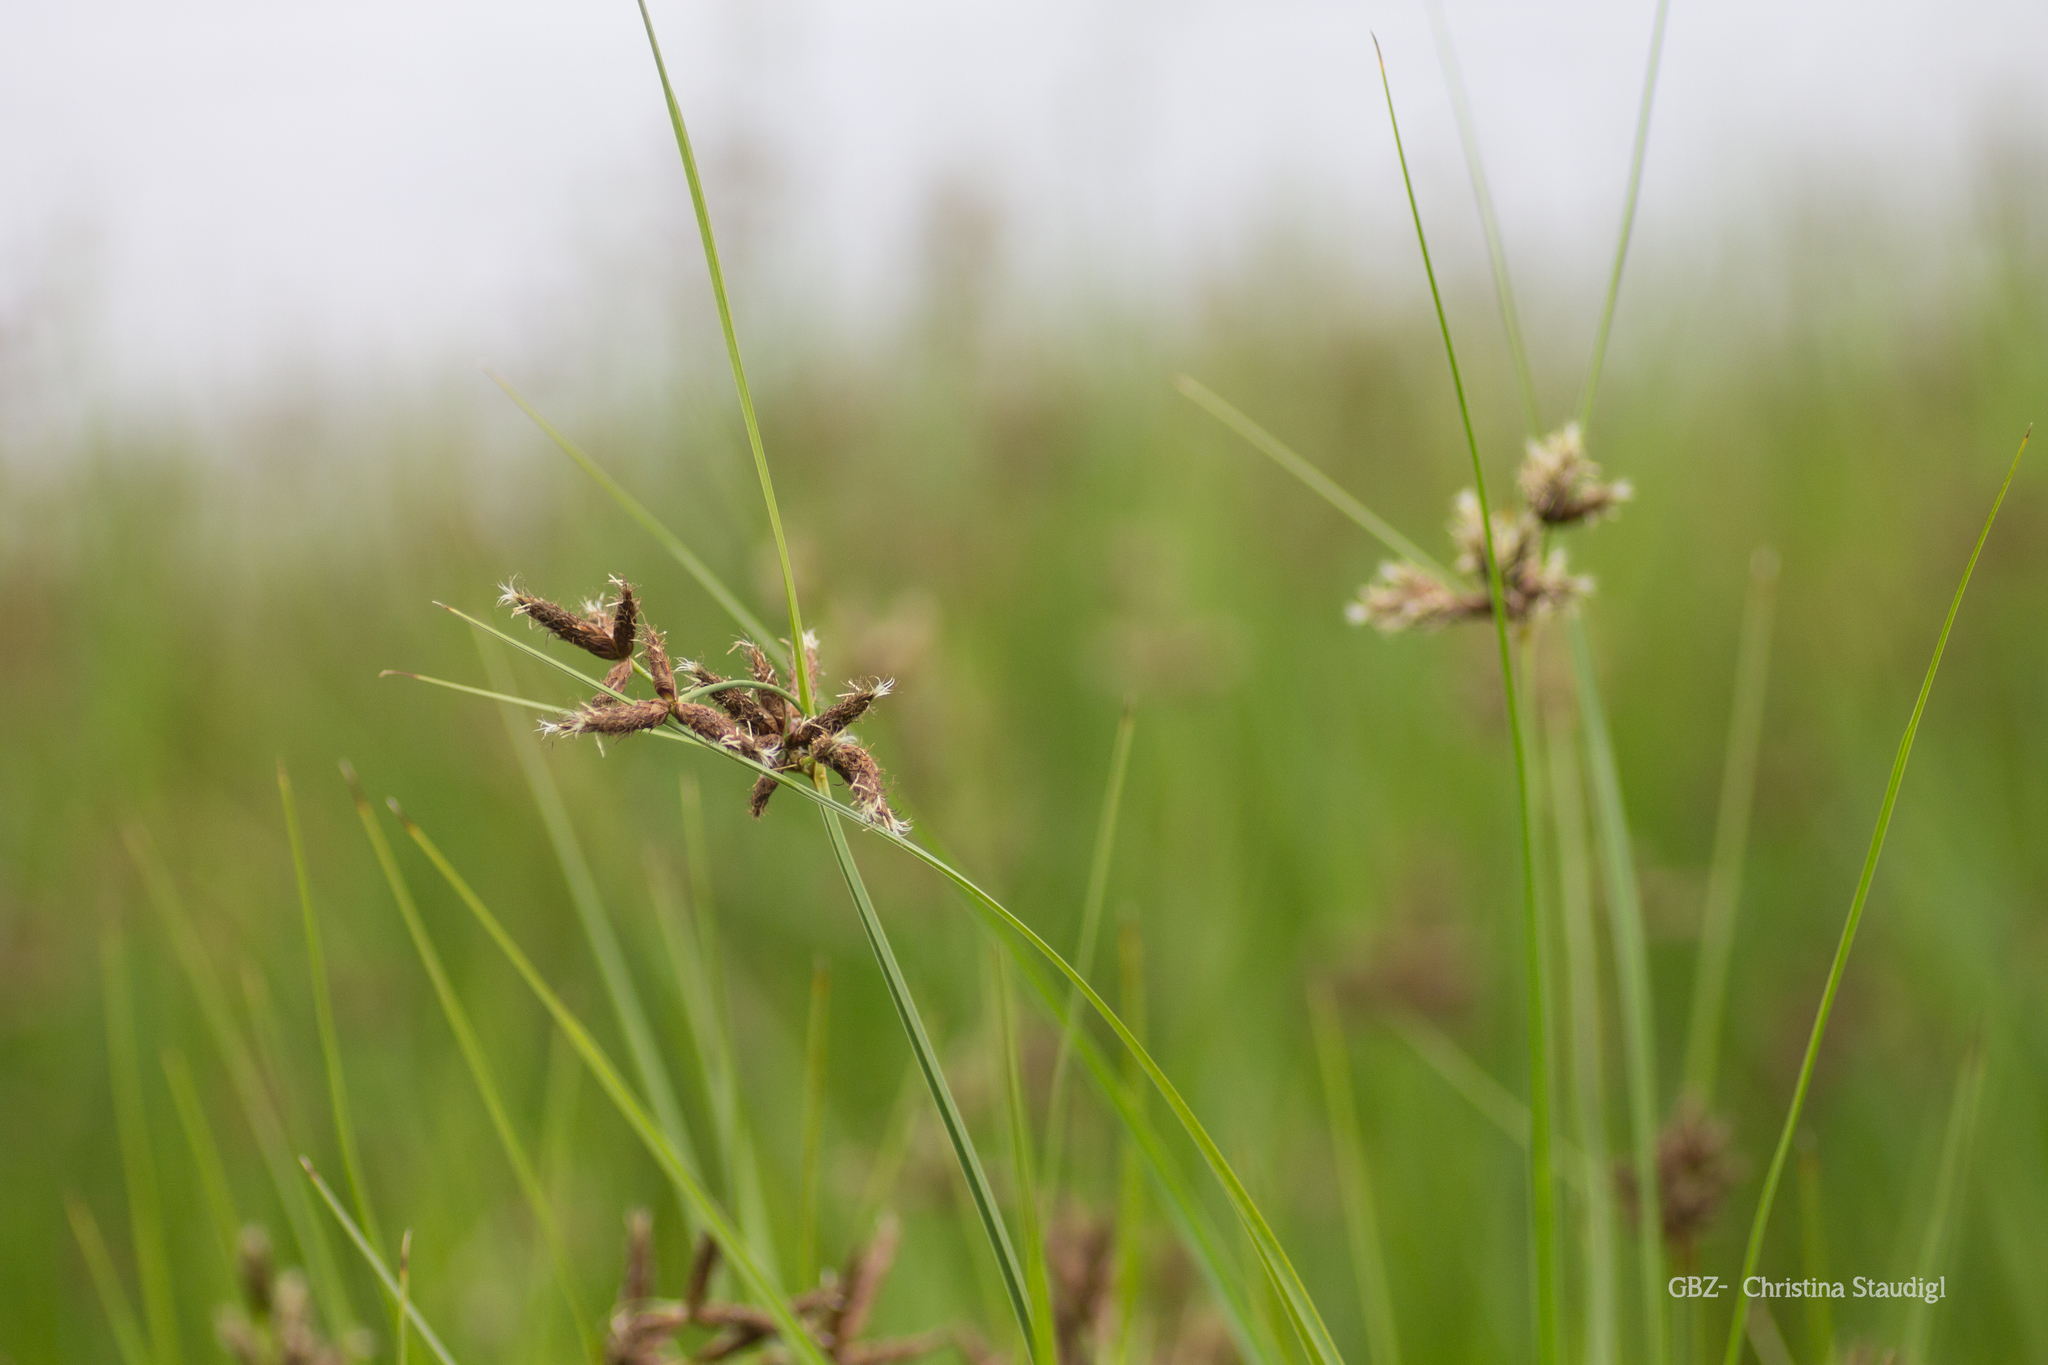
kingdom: Plantae
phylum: Tracheophyta
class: Liliopsida
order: Poales
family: Cyperaceae
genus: Bolboschoenus
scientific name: Bolboschoenus maritimus
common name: Sea club-rush
